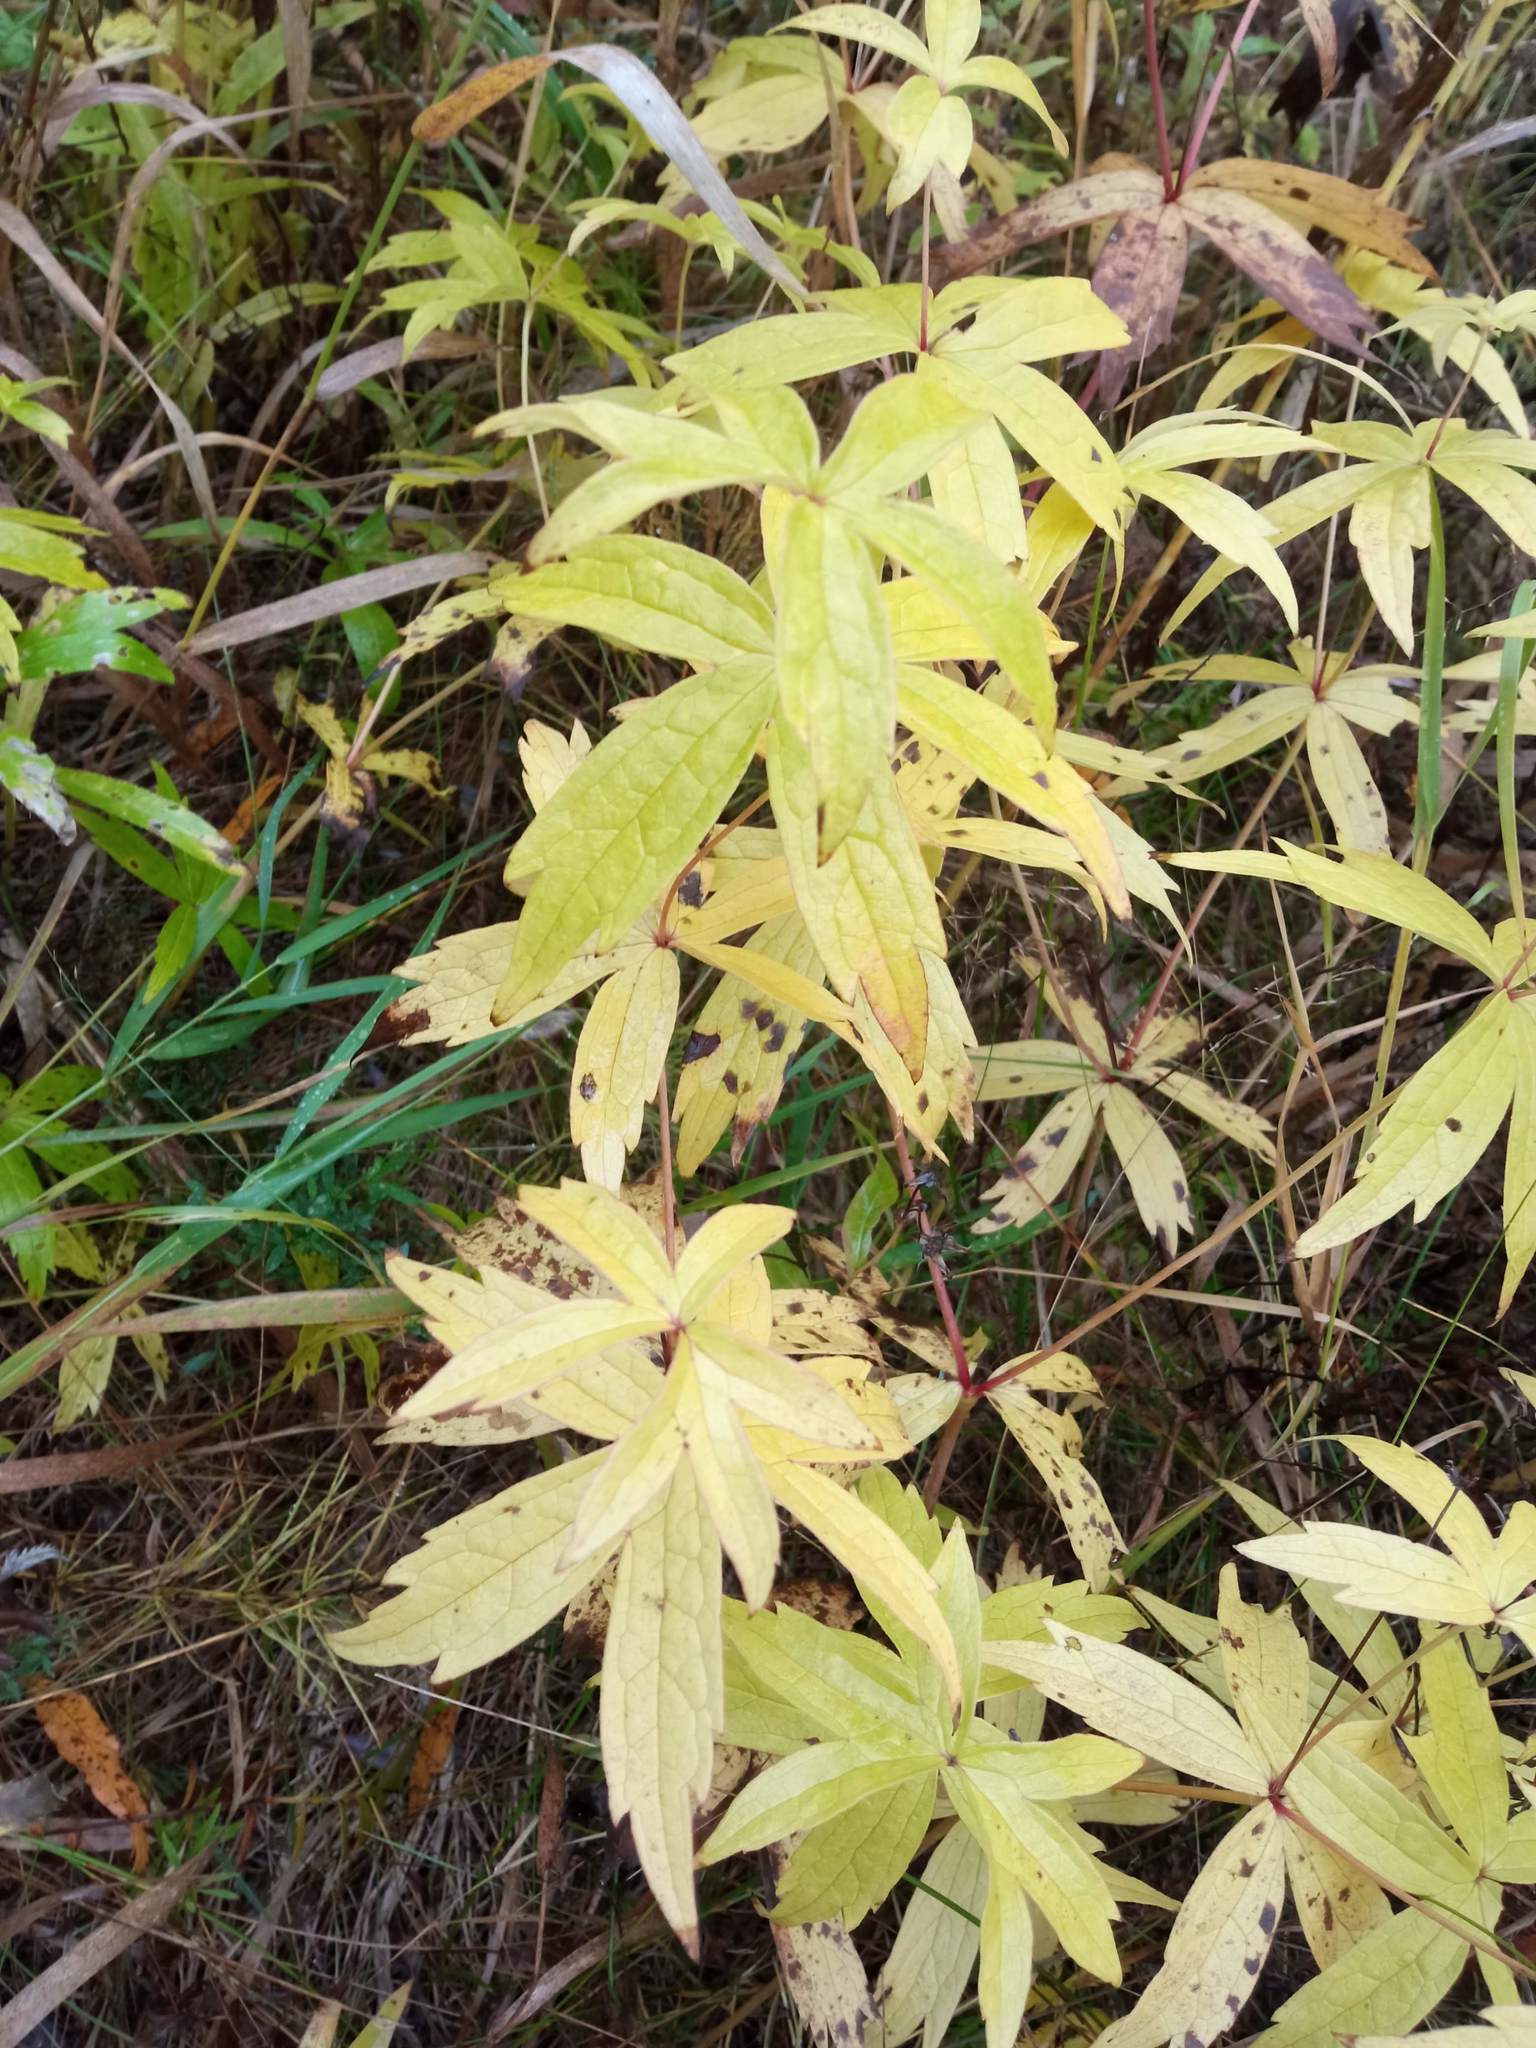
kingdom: Plantae
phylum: Tracheophyta
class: Magnoliopsida
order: Ranunculales
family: Ranunculaceae
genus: Anemonastrum
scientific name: Anemonastrum dichotomum
